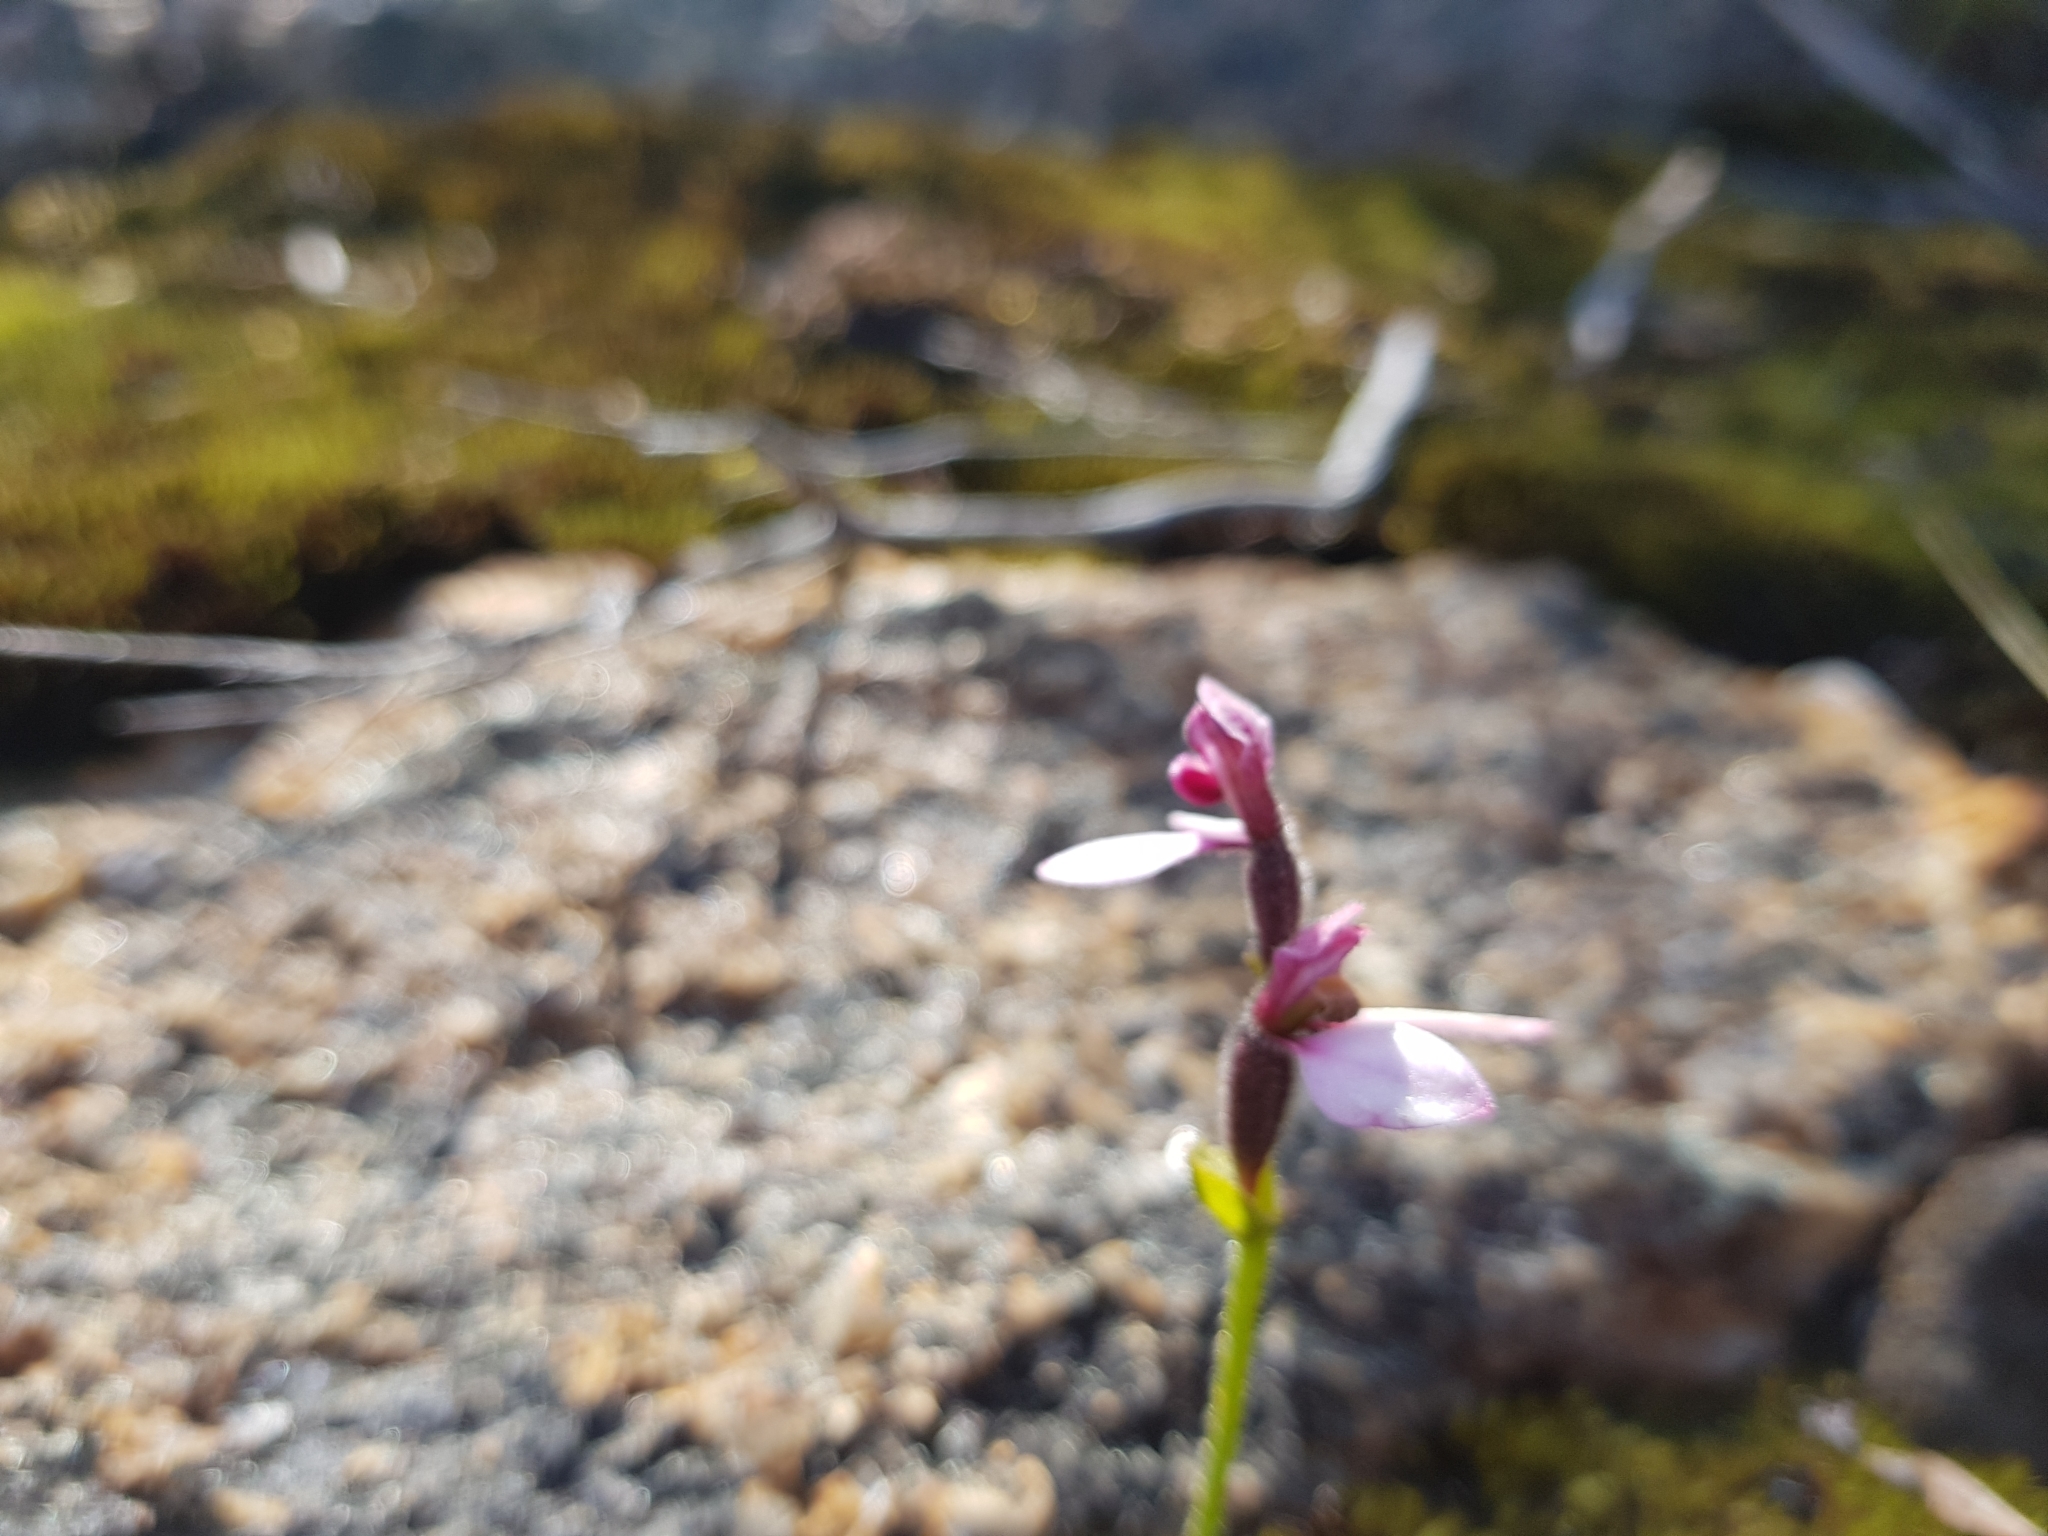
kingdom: Plantae
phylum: Tracheophyta
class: Liliopsida
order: Asparagales
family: Orchidaceae
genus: Eriochilus
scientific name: Eriochilus scaber
